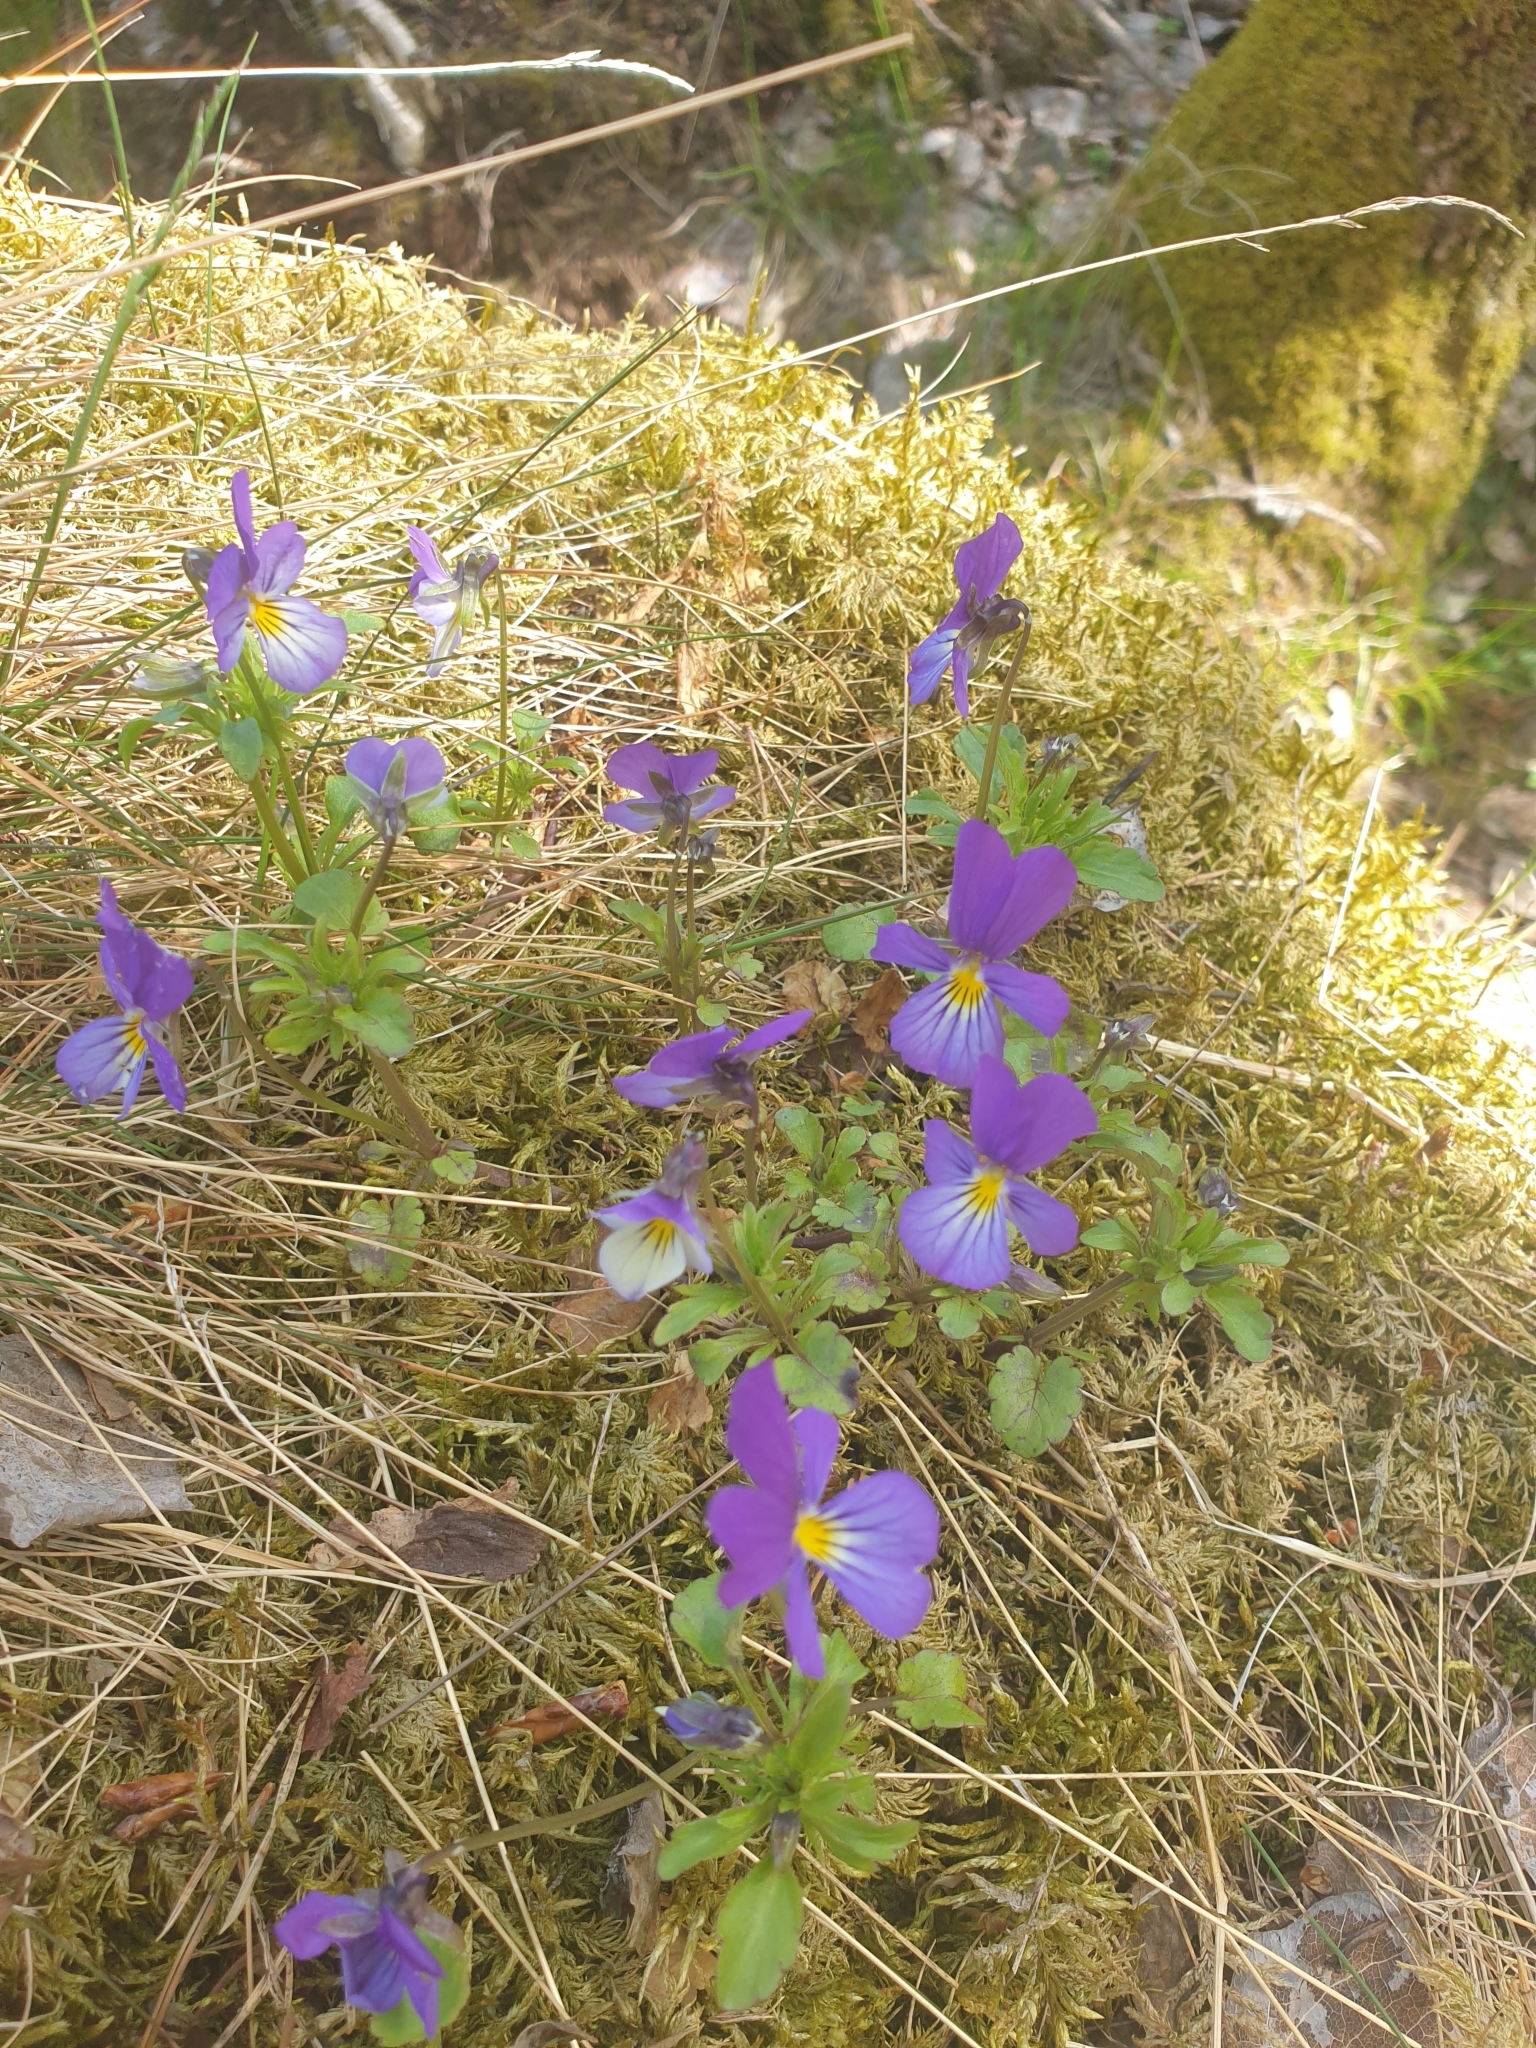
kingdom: Plantae
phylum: Tracheophyta
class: Magnoliopsida
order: Malpighiales
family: Violaceae
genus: Viola
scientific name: Viola tricolor
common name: Pansy
